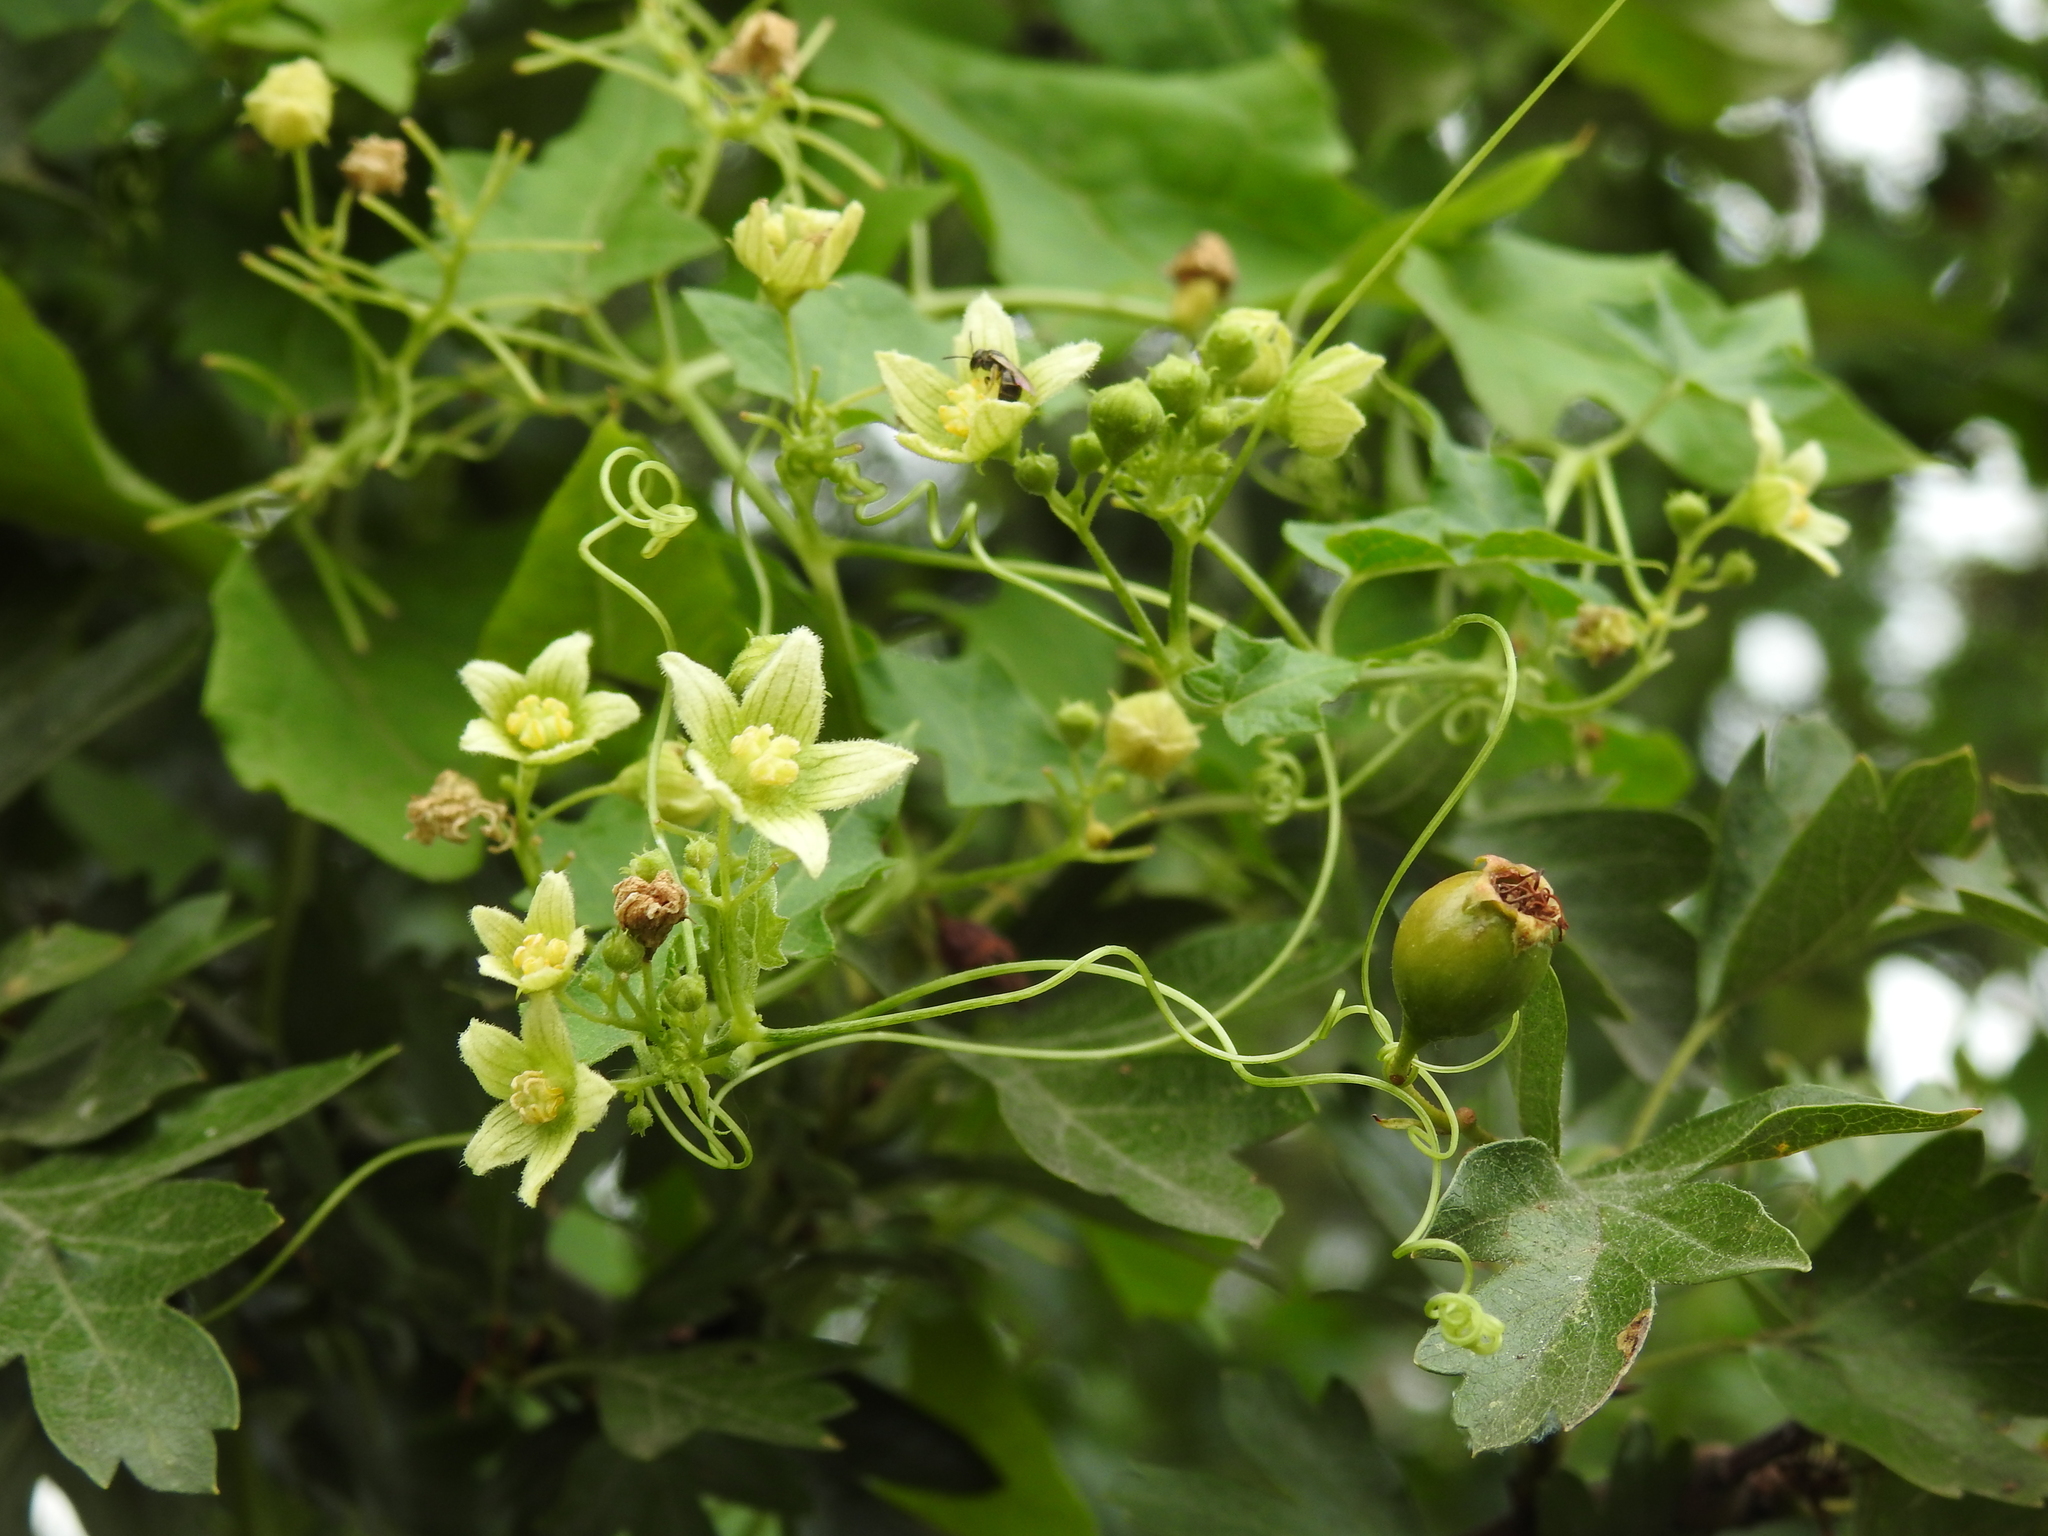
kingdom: Plantae
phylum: Tracheophyta
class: Magnoliopsida
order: Cucurbitales
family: Cucurbitaceae
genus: Bryonia
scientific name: Bryonia cretica
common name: Cretan bryony
